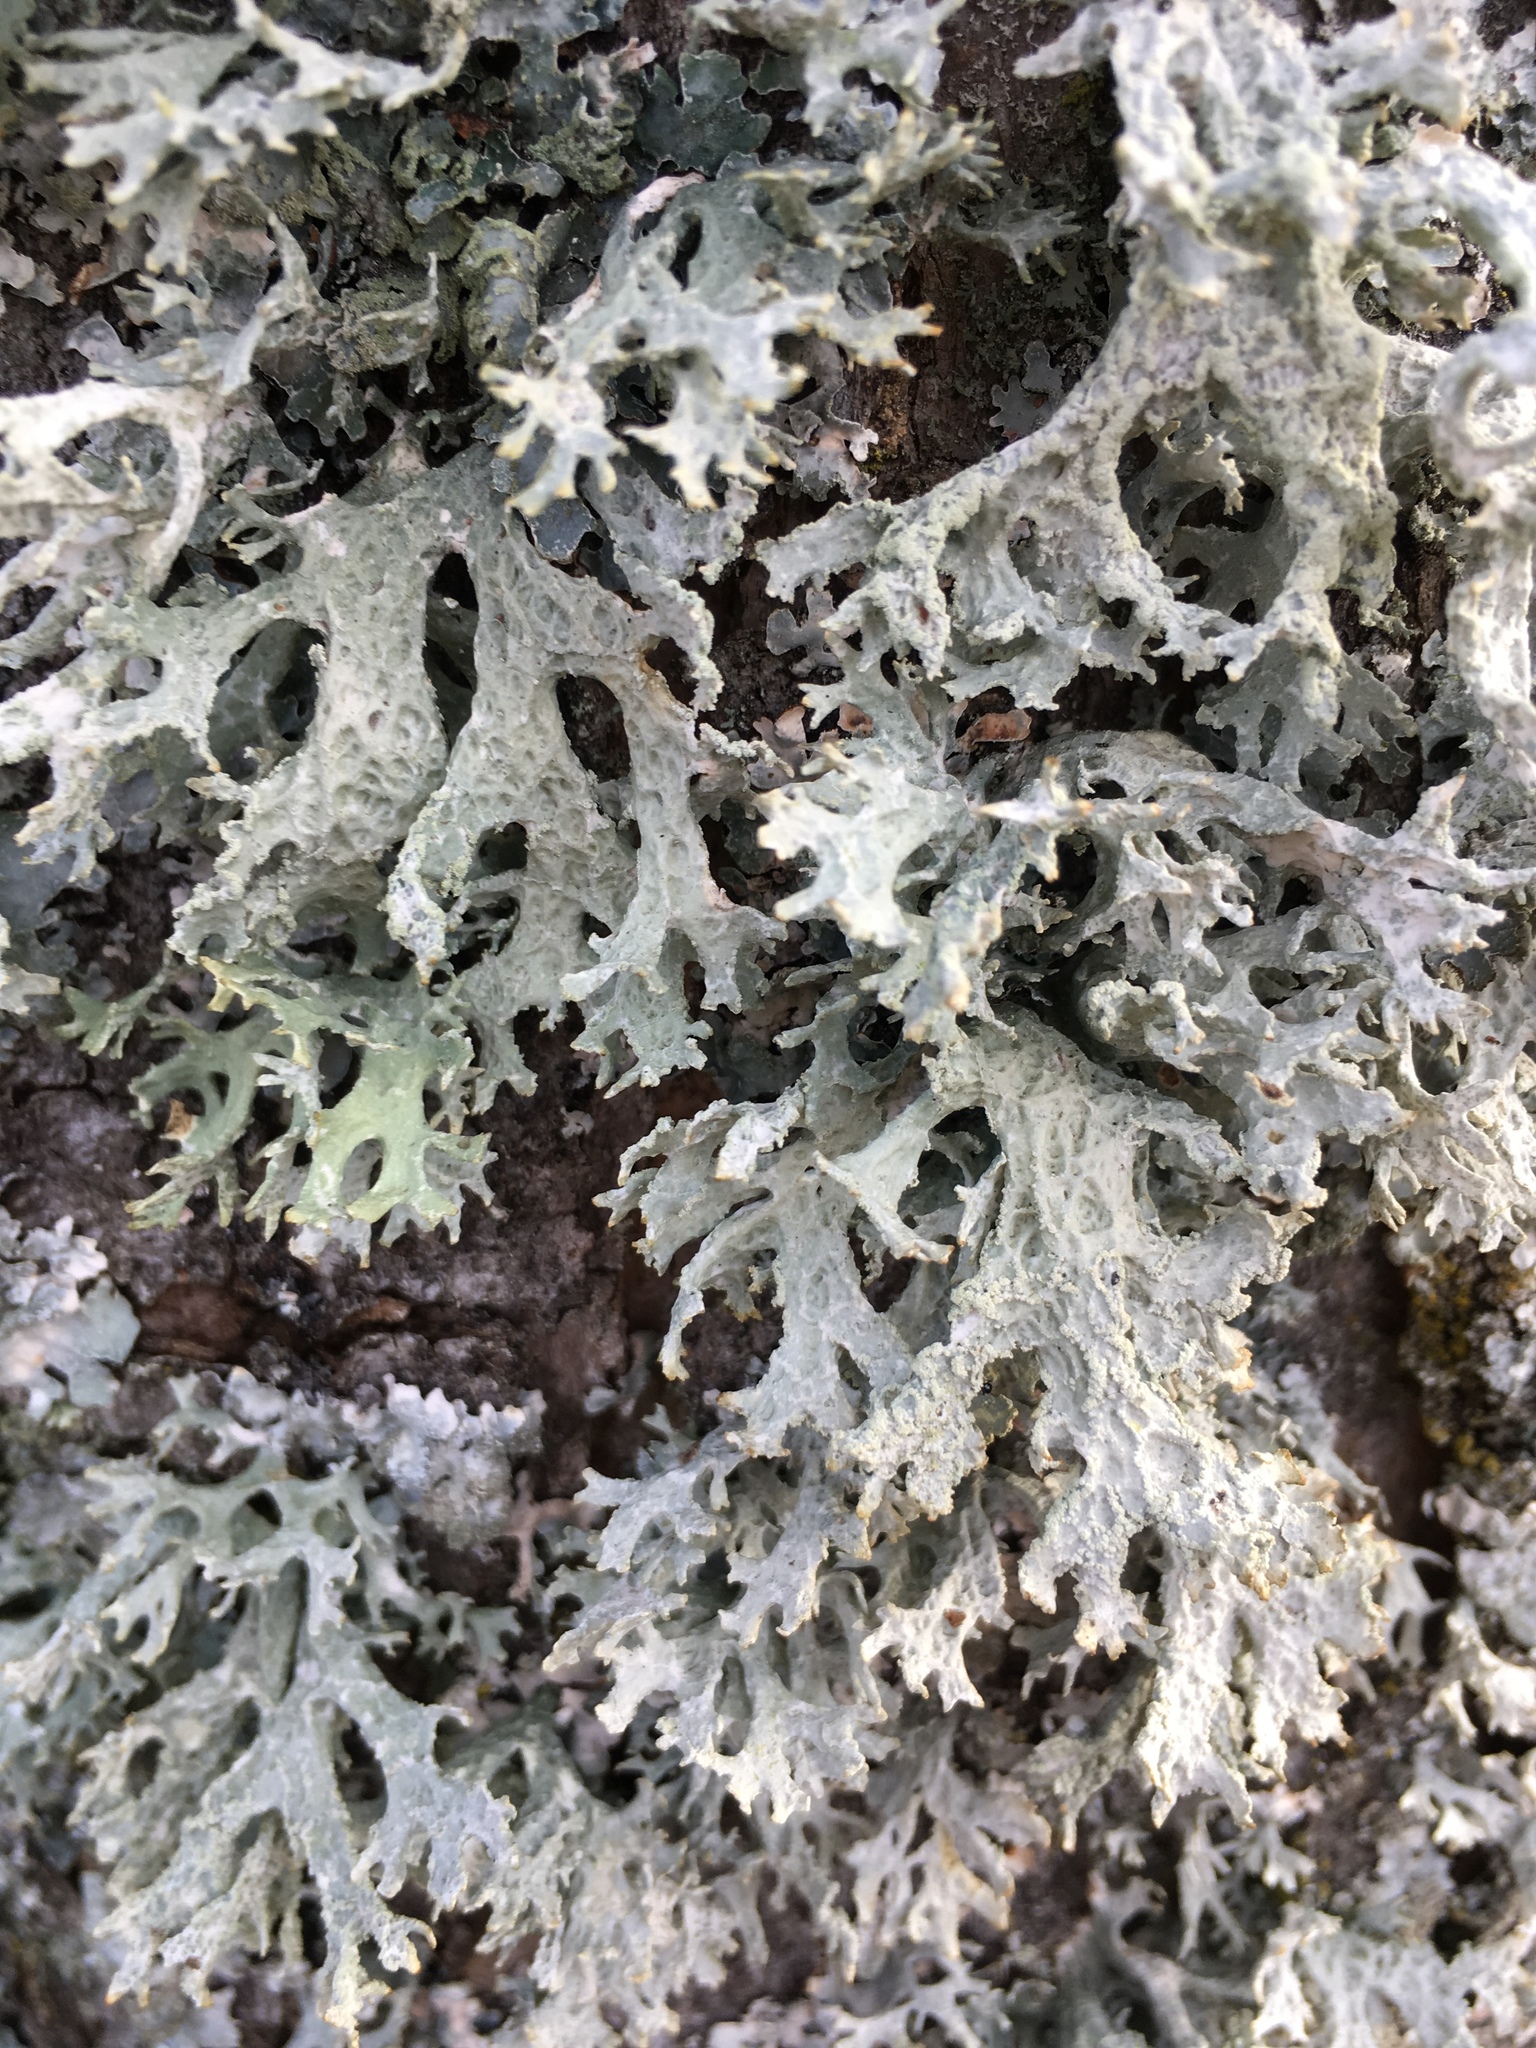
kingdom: Fungi
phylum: Ascomycota
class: Lecanoromycetes
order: Lecanorales
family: Parmeliaceae
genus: Evernia
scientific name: Evernia prunastri
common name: Oak moss
